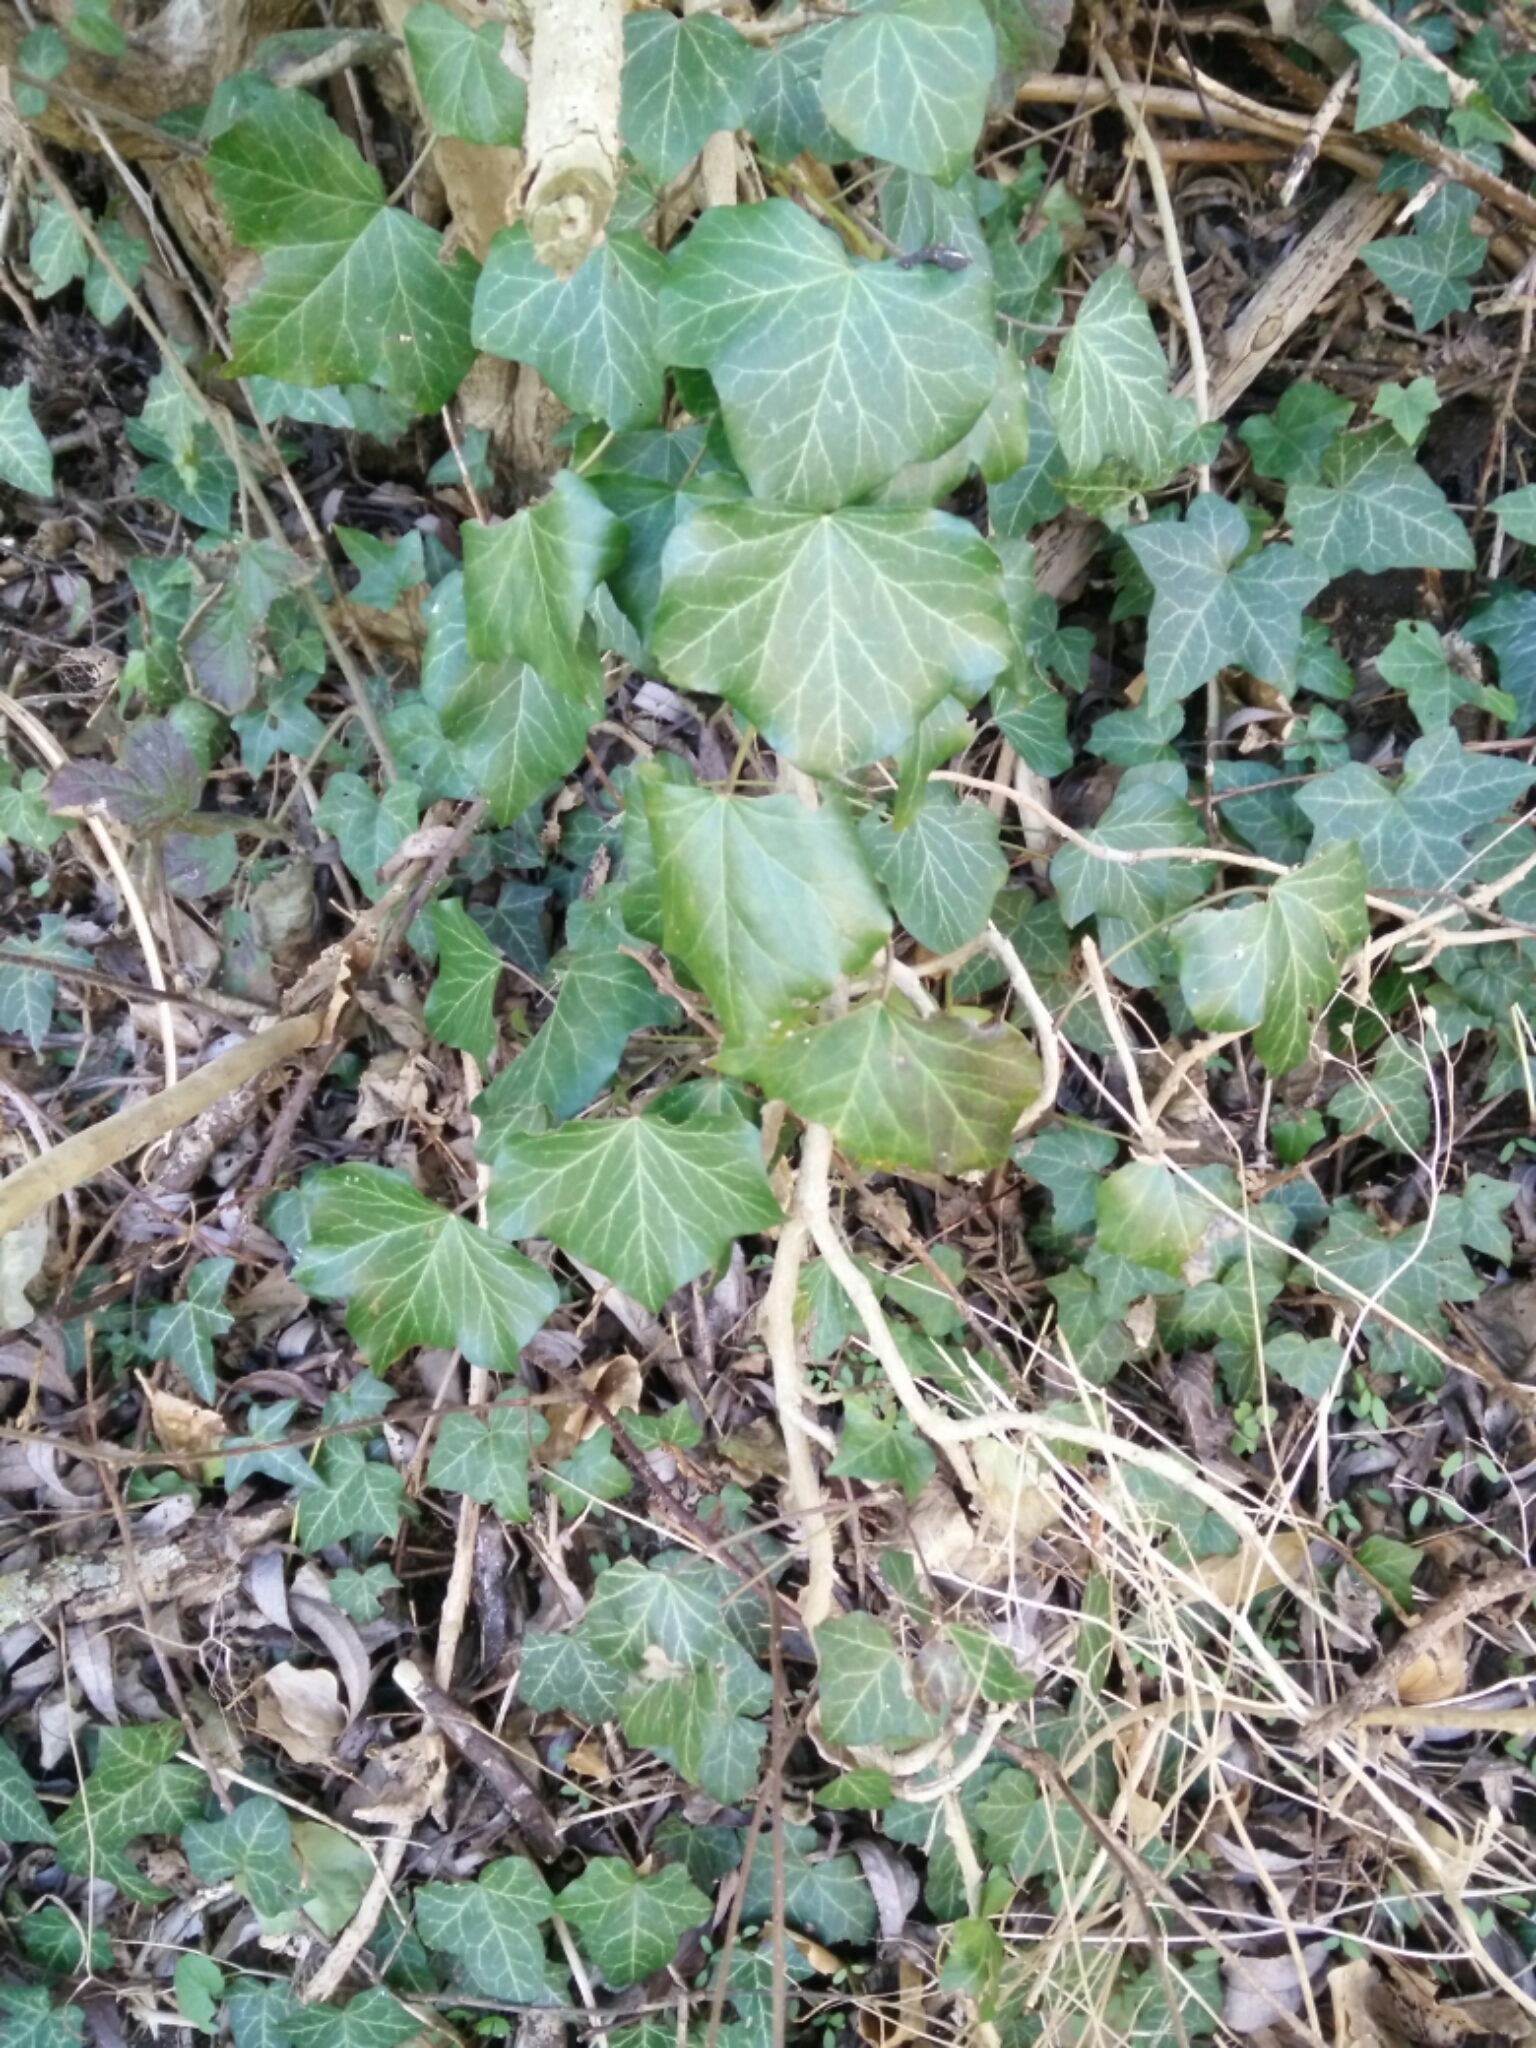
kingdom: Plantae
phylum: Tracheophyta
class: Magnoliopsida
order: Apiales
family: Araliaceae
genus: Hedera
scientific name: Hedera helix
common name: Ivy
